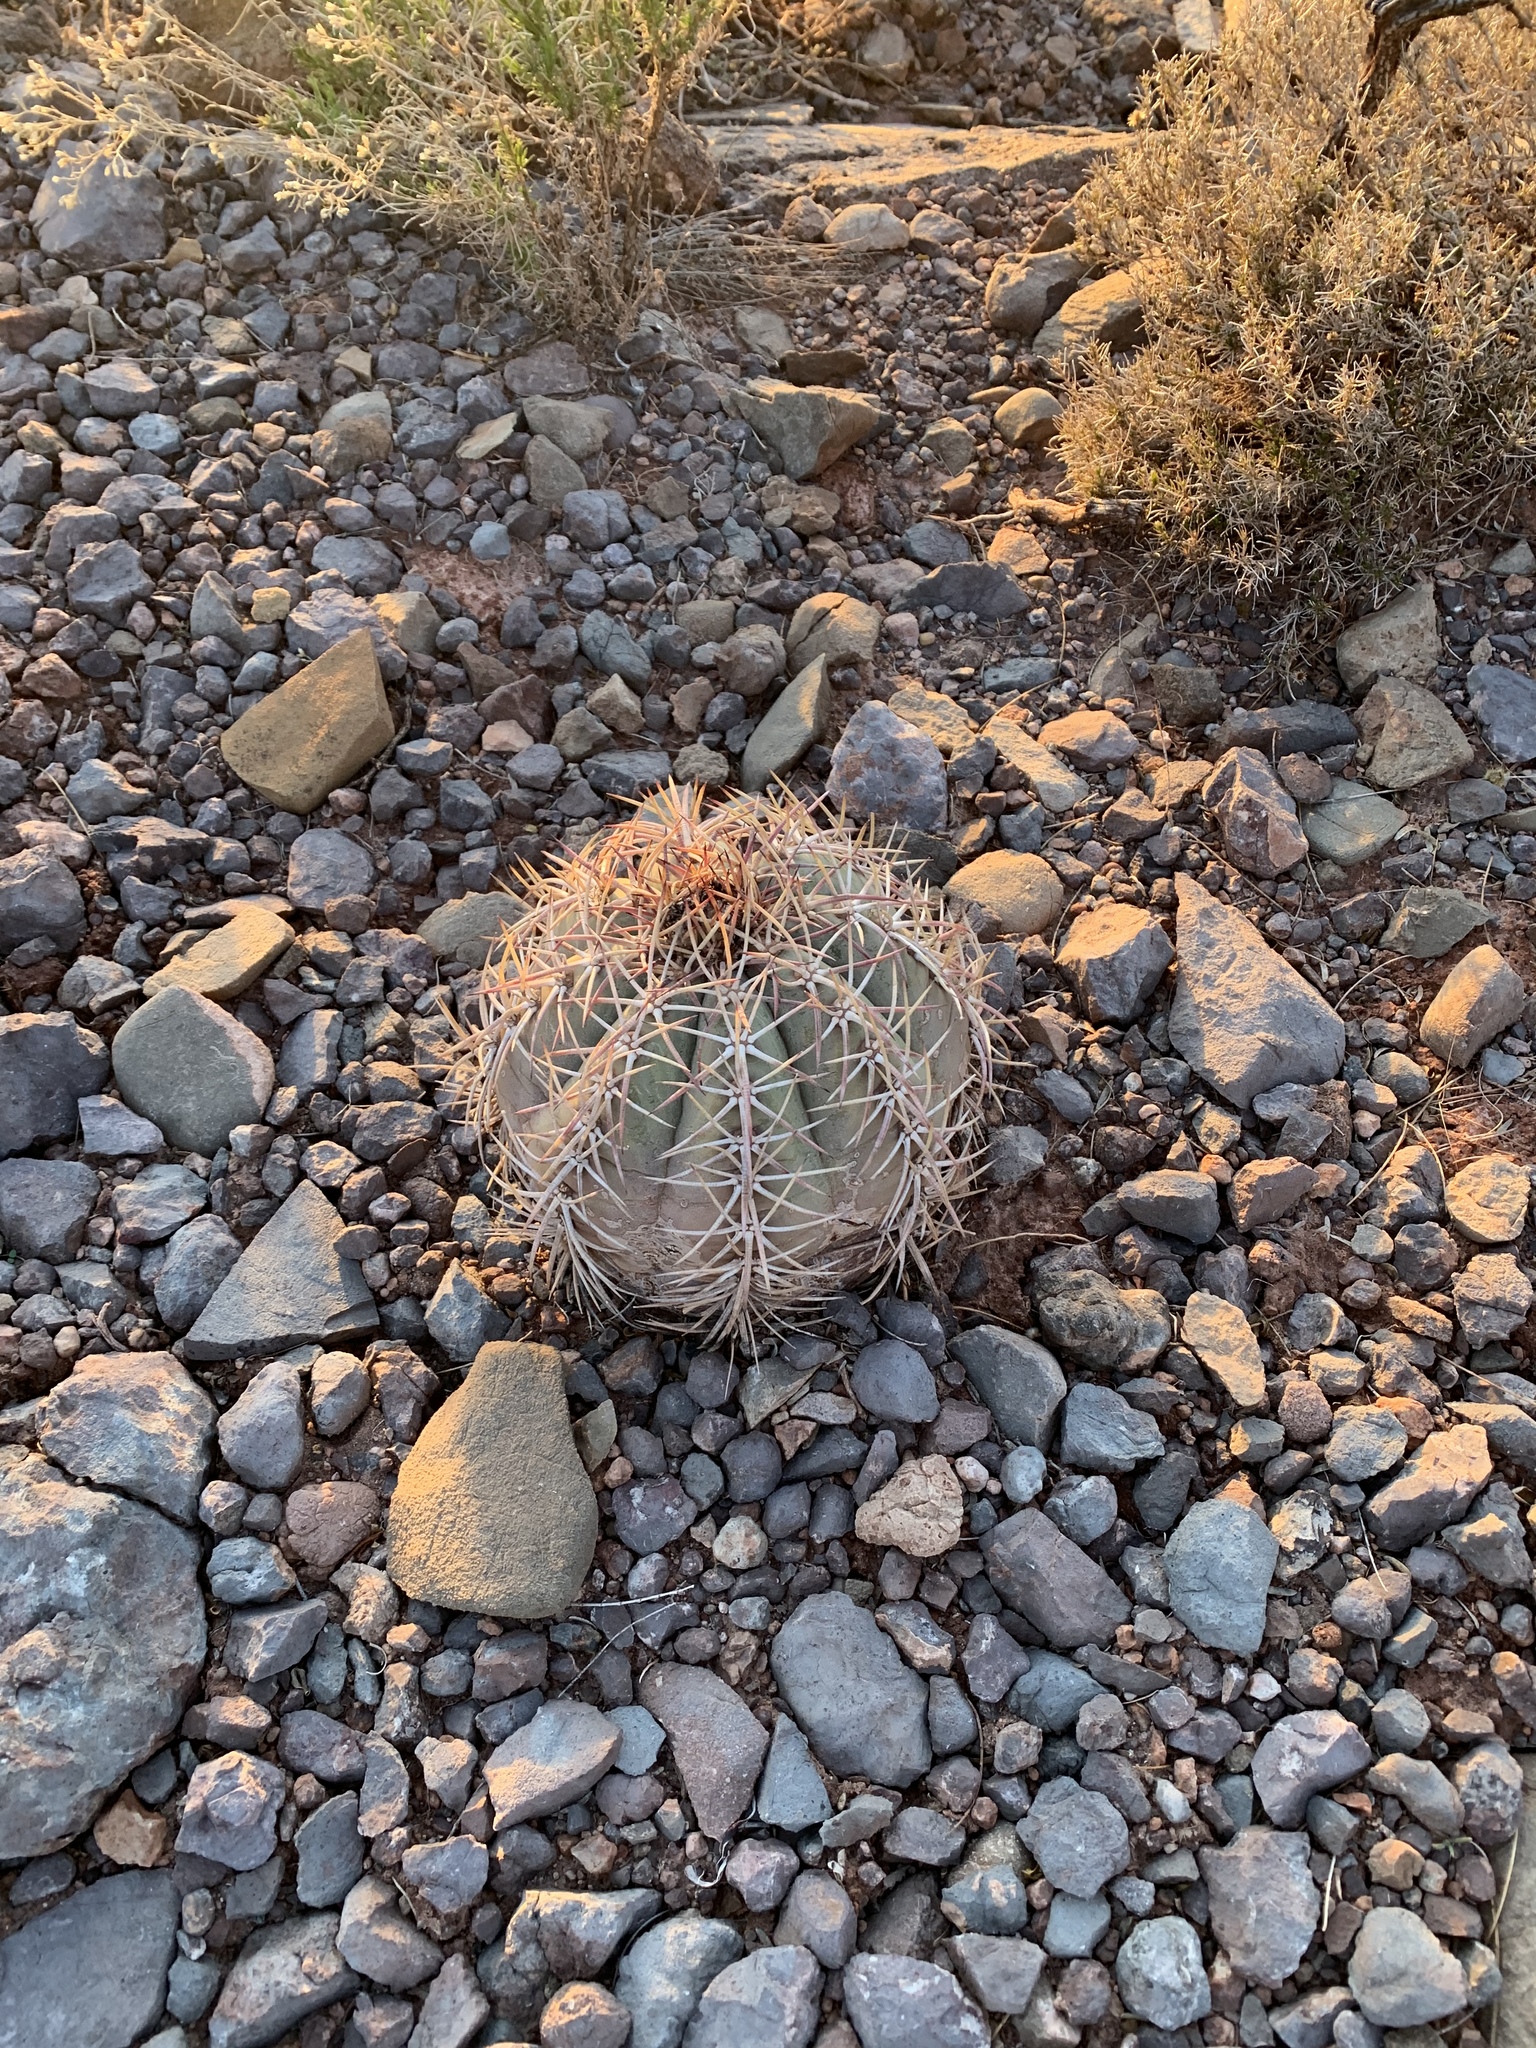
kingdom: Plantae
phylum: Tracheophyta
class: Magnoliopsida
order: Caryophyllales
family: Cactaceae
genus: Echinocactus
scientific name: Echinocactus horizonthalonius
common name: Devilshead
